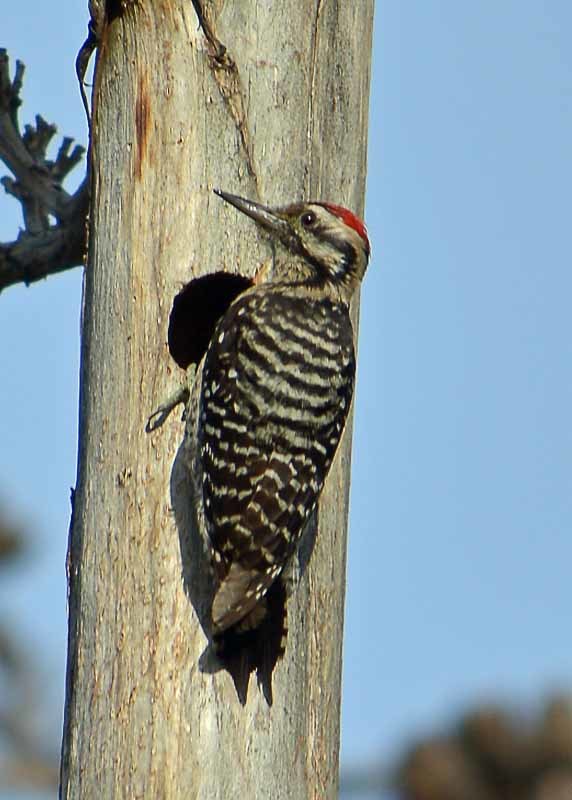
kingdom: Animalia
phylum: Chordata
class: Aves
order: Piciformes
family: Picidae
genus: Dryobates
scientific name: Dryobates scalaris
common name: Ladder-backed woodpecker
